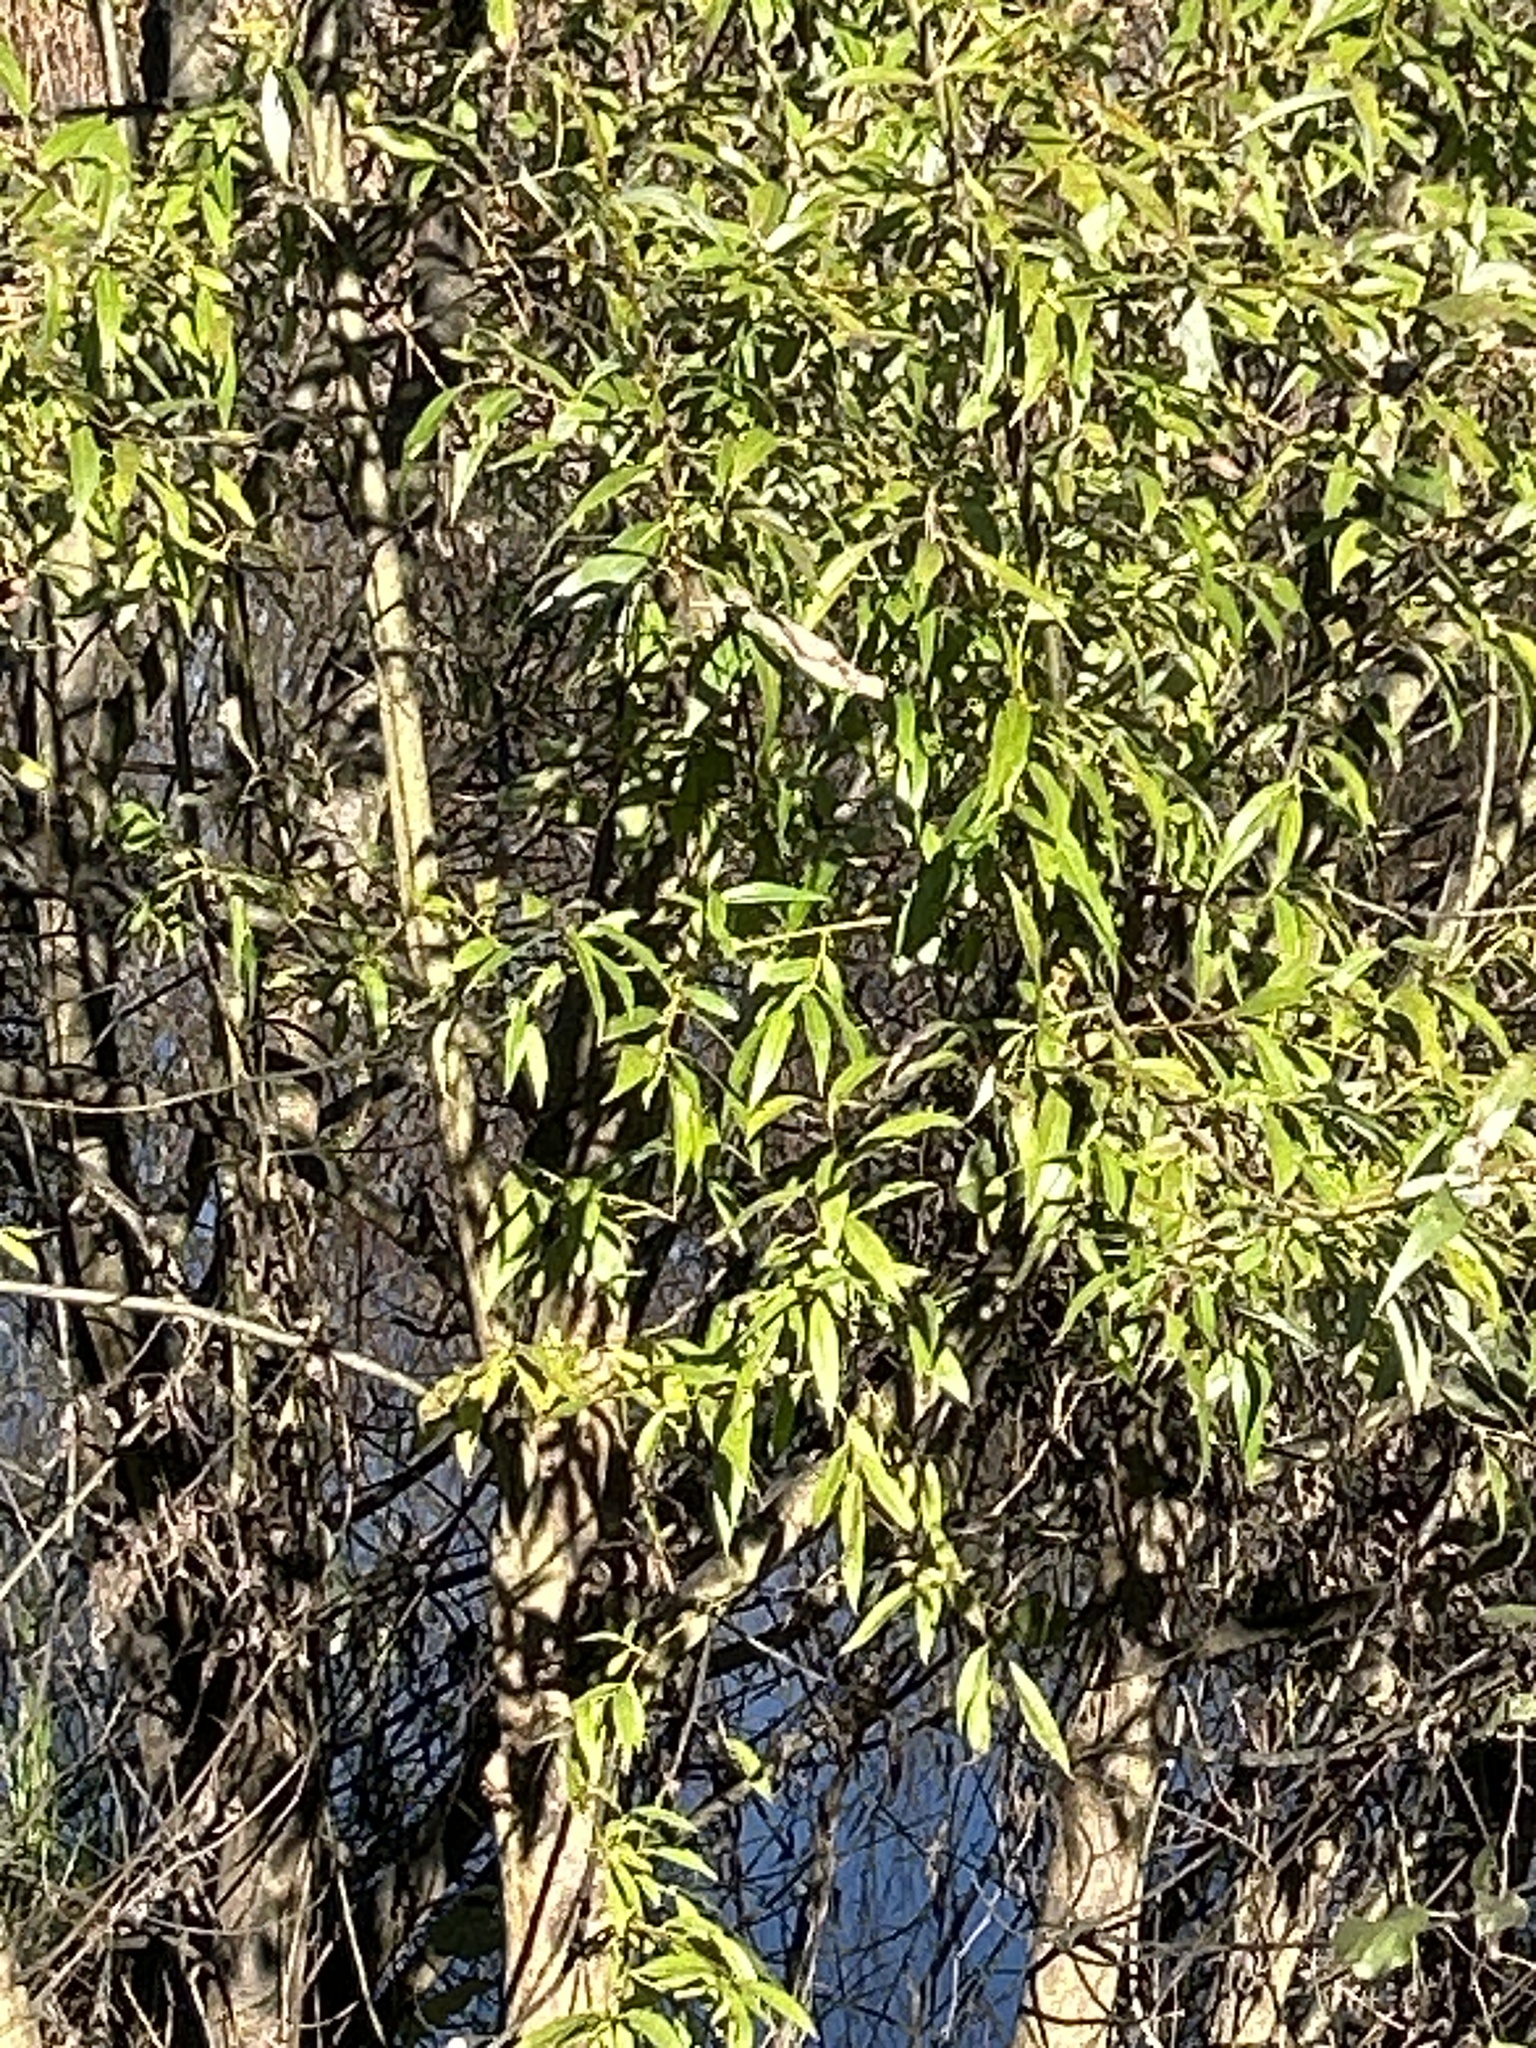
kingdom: Plantae
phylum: Tracheophyta
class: Magnoliopsida
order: Malpighiales
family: Salicaceae
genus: Salix
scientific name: Salix fragilis
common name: Crack willow
